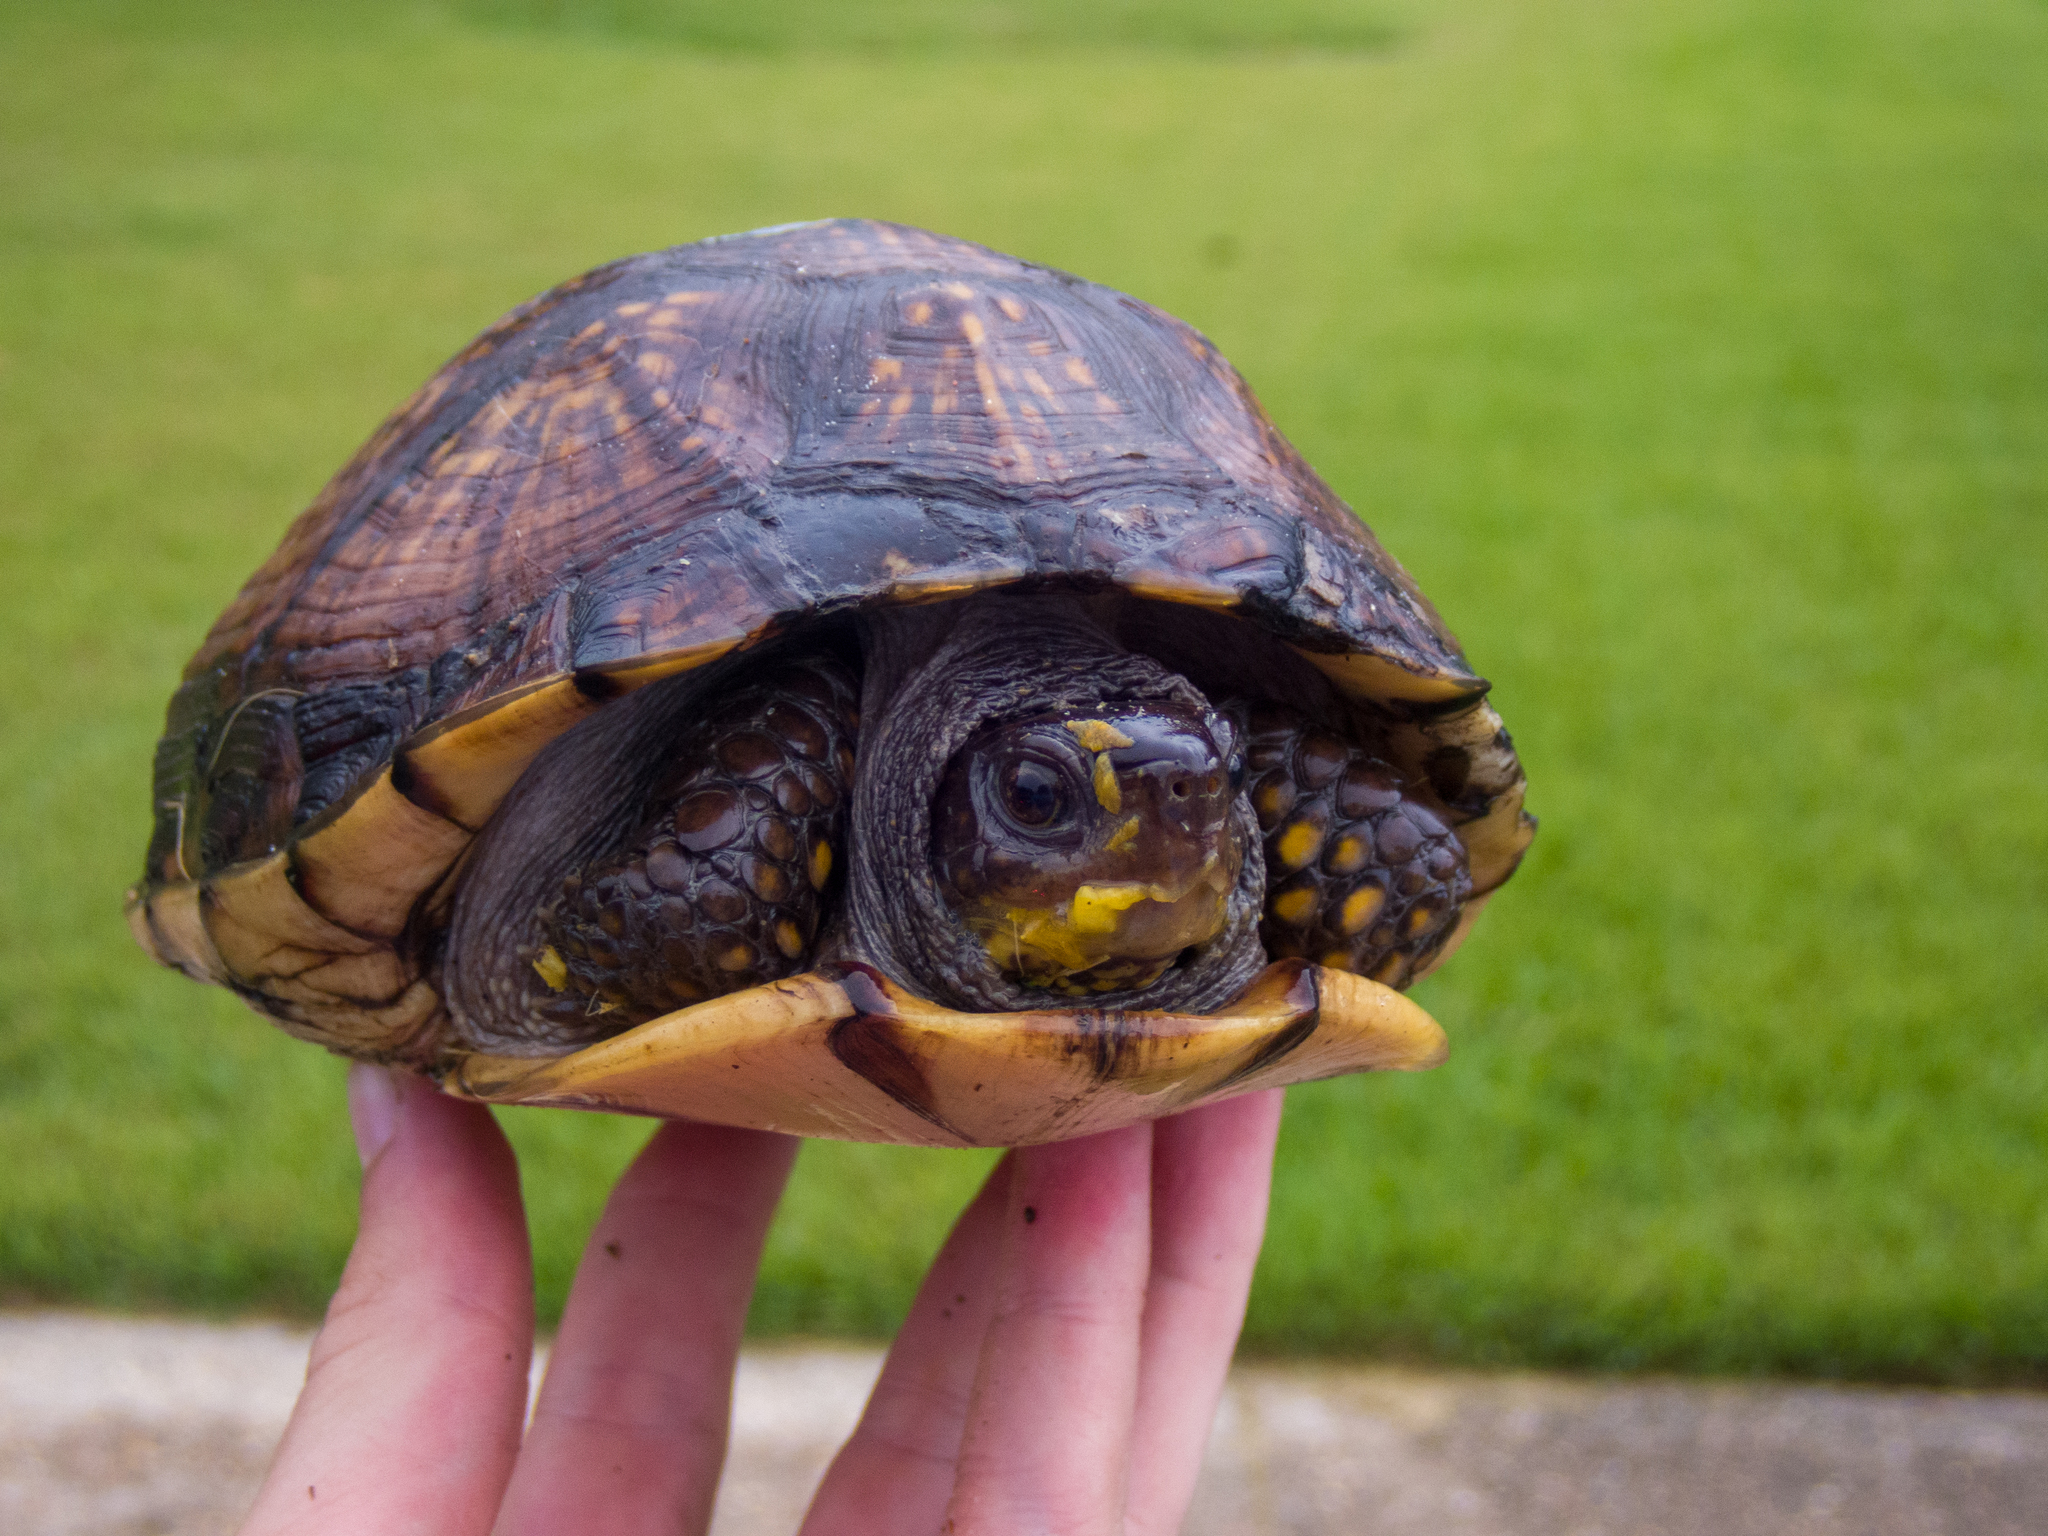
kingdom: Animalia
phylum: Chordata
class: Testudines
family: Emydidae
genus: Terrapene
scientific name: Terrapene carolina
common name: Common box turtle
